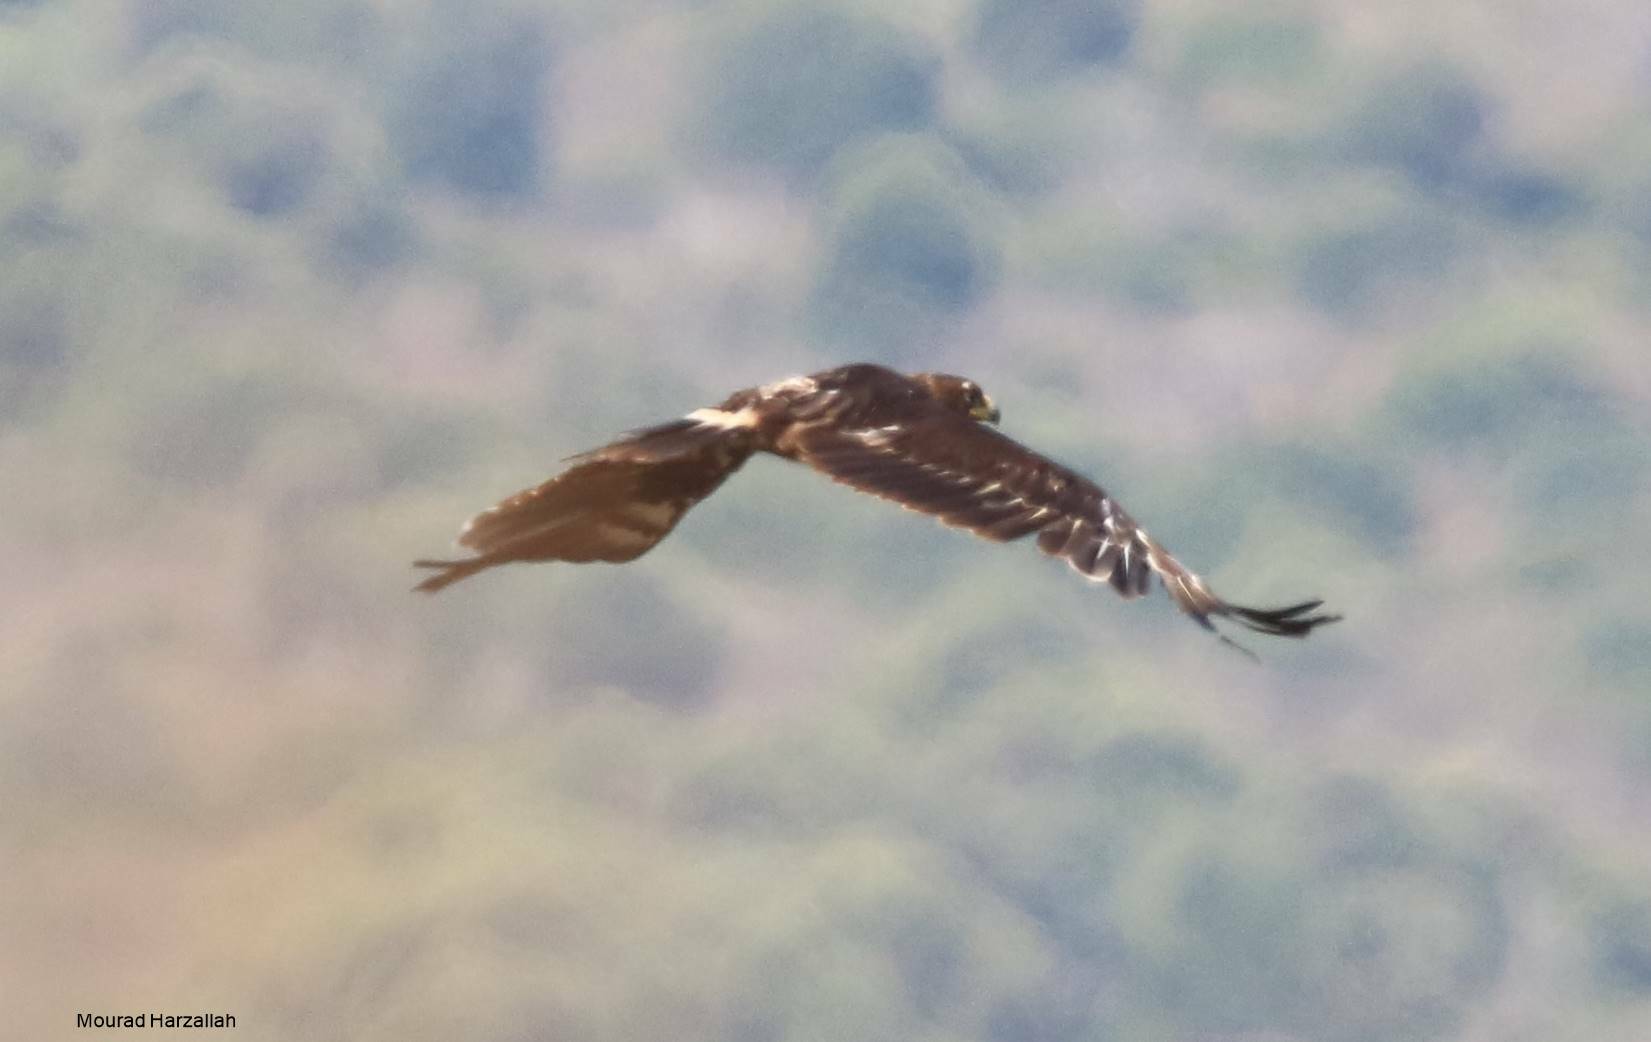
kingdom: Animalia
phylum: Chordata
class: Aves
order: Accipitriformes
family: Accipitridae
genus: Aquila
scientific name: Aquila clanga
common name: Greater spotted eagle
